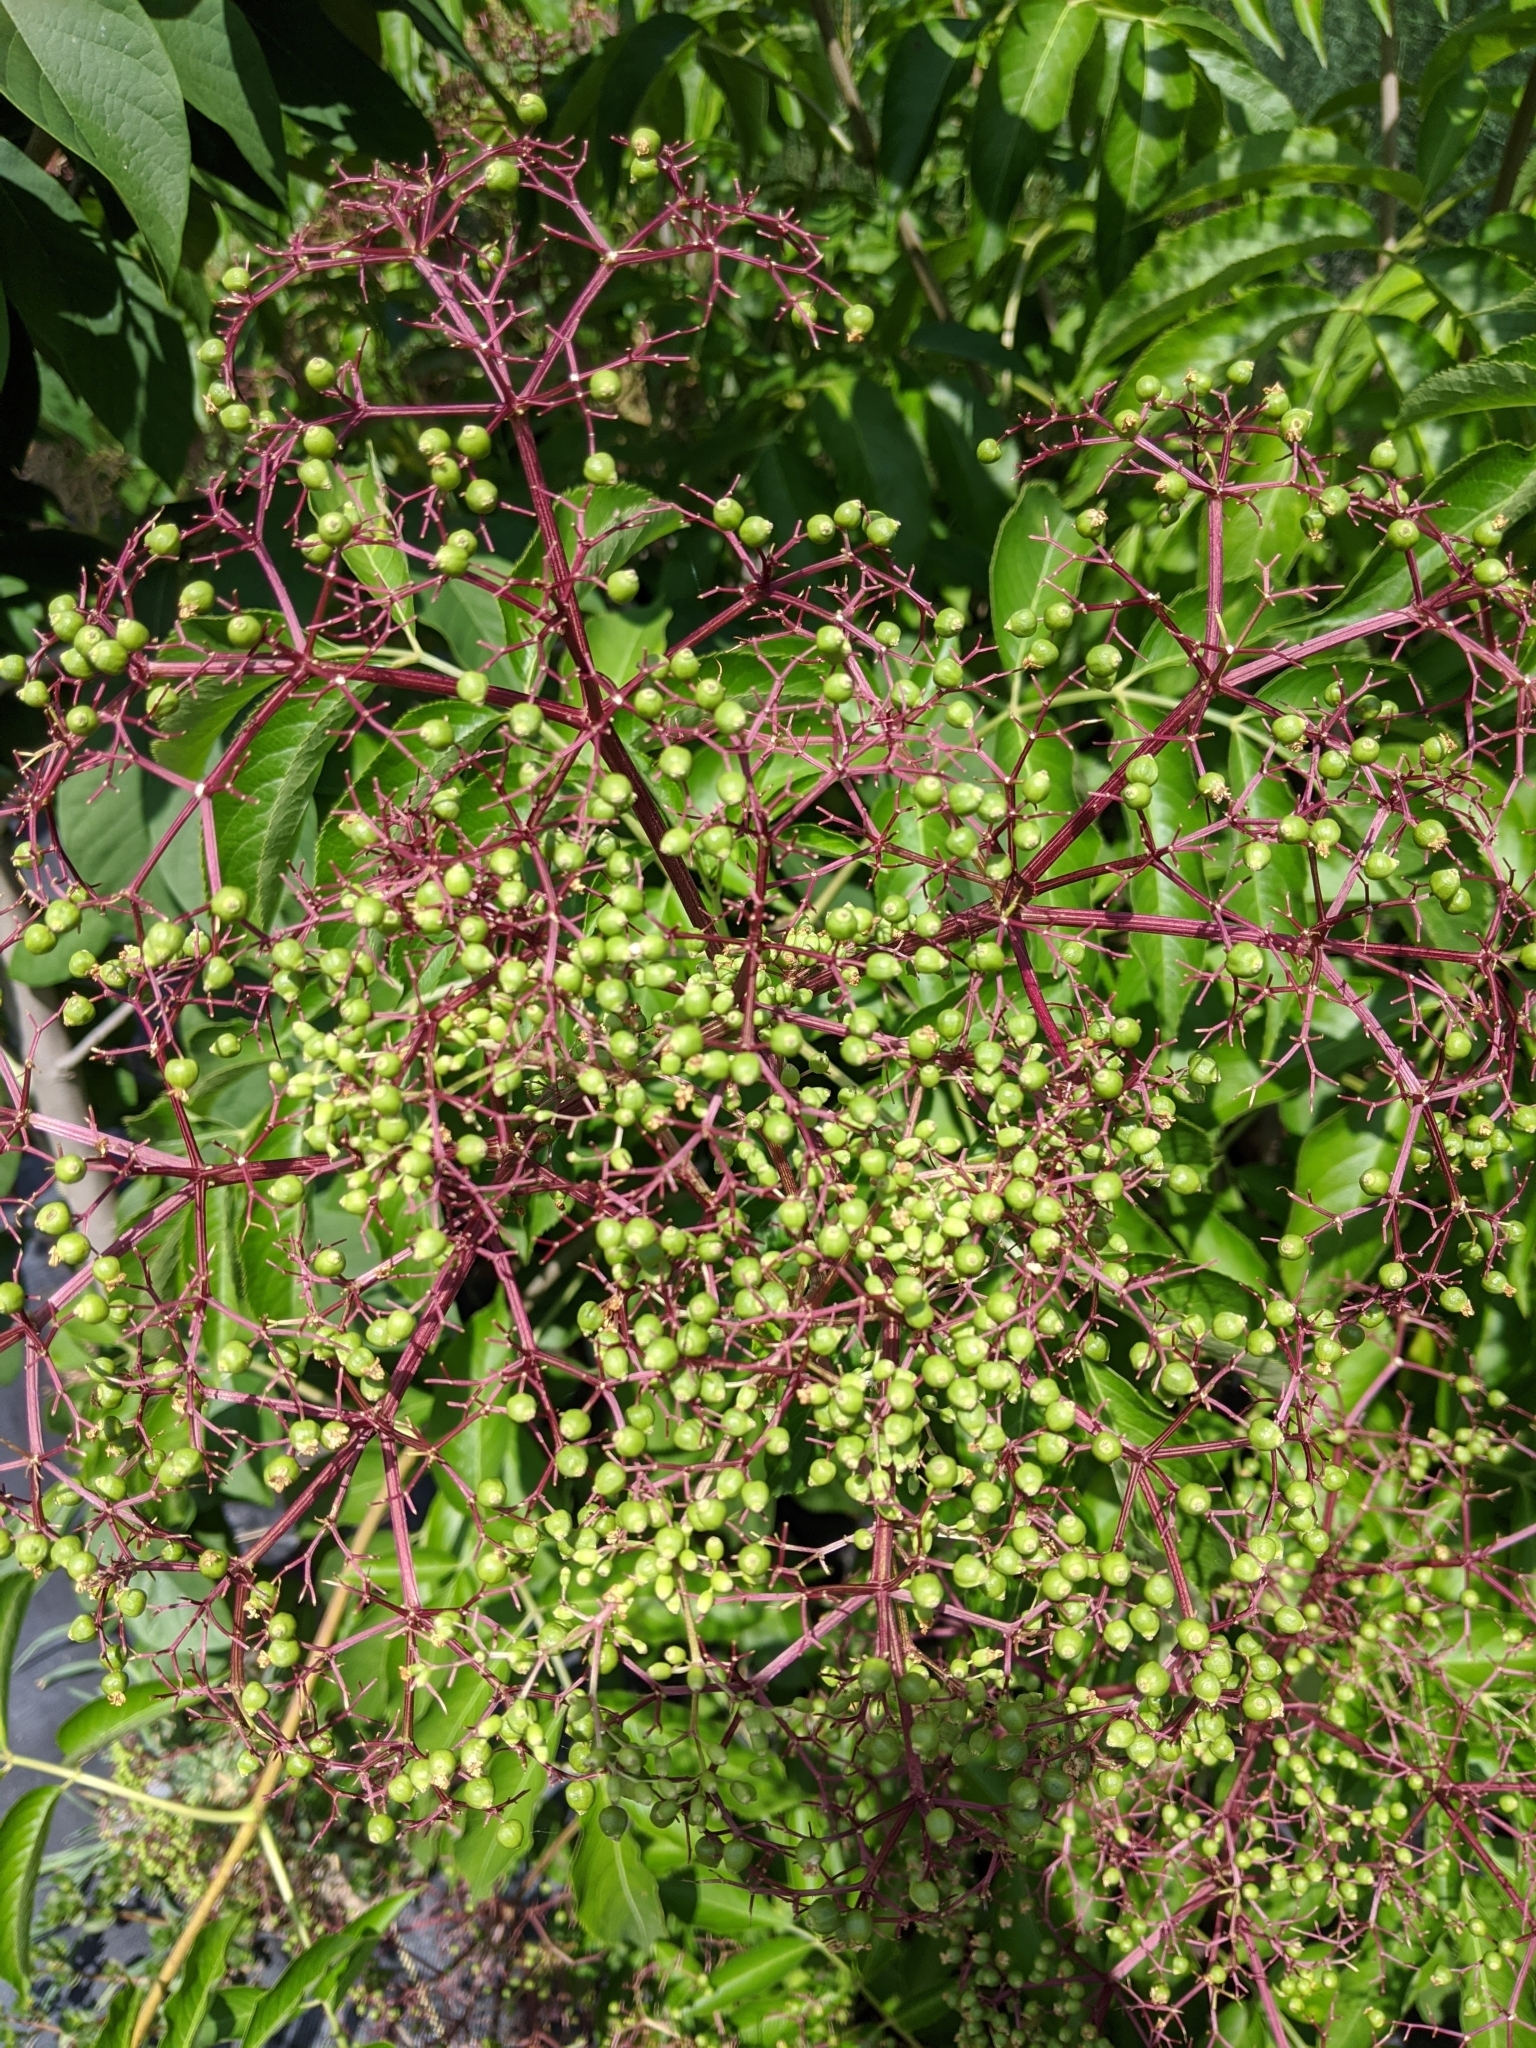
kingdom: Plantae
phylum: Tracheophyta
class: Magnoliopsida
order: Dipsacales
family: Viburnaceae
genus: Sambucus
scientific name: Sambucus canadensis
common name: American elder
